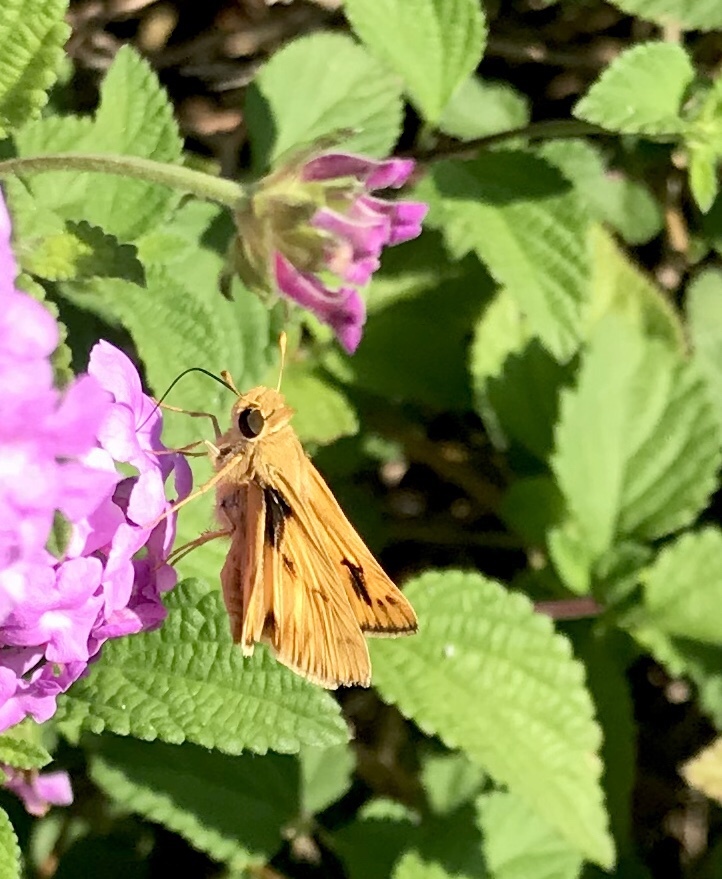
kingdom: Animalia
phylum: Arthropoda
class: Insecta
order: Lepidoptera
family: Hesperiidae
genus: Hylephila
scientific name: Hylephila phyleus
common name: Fiery skipper
